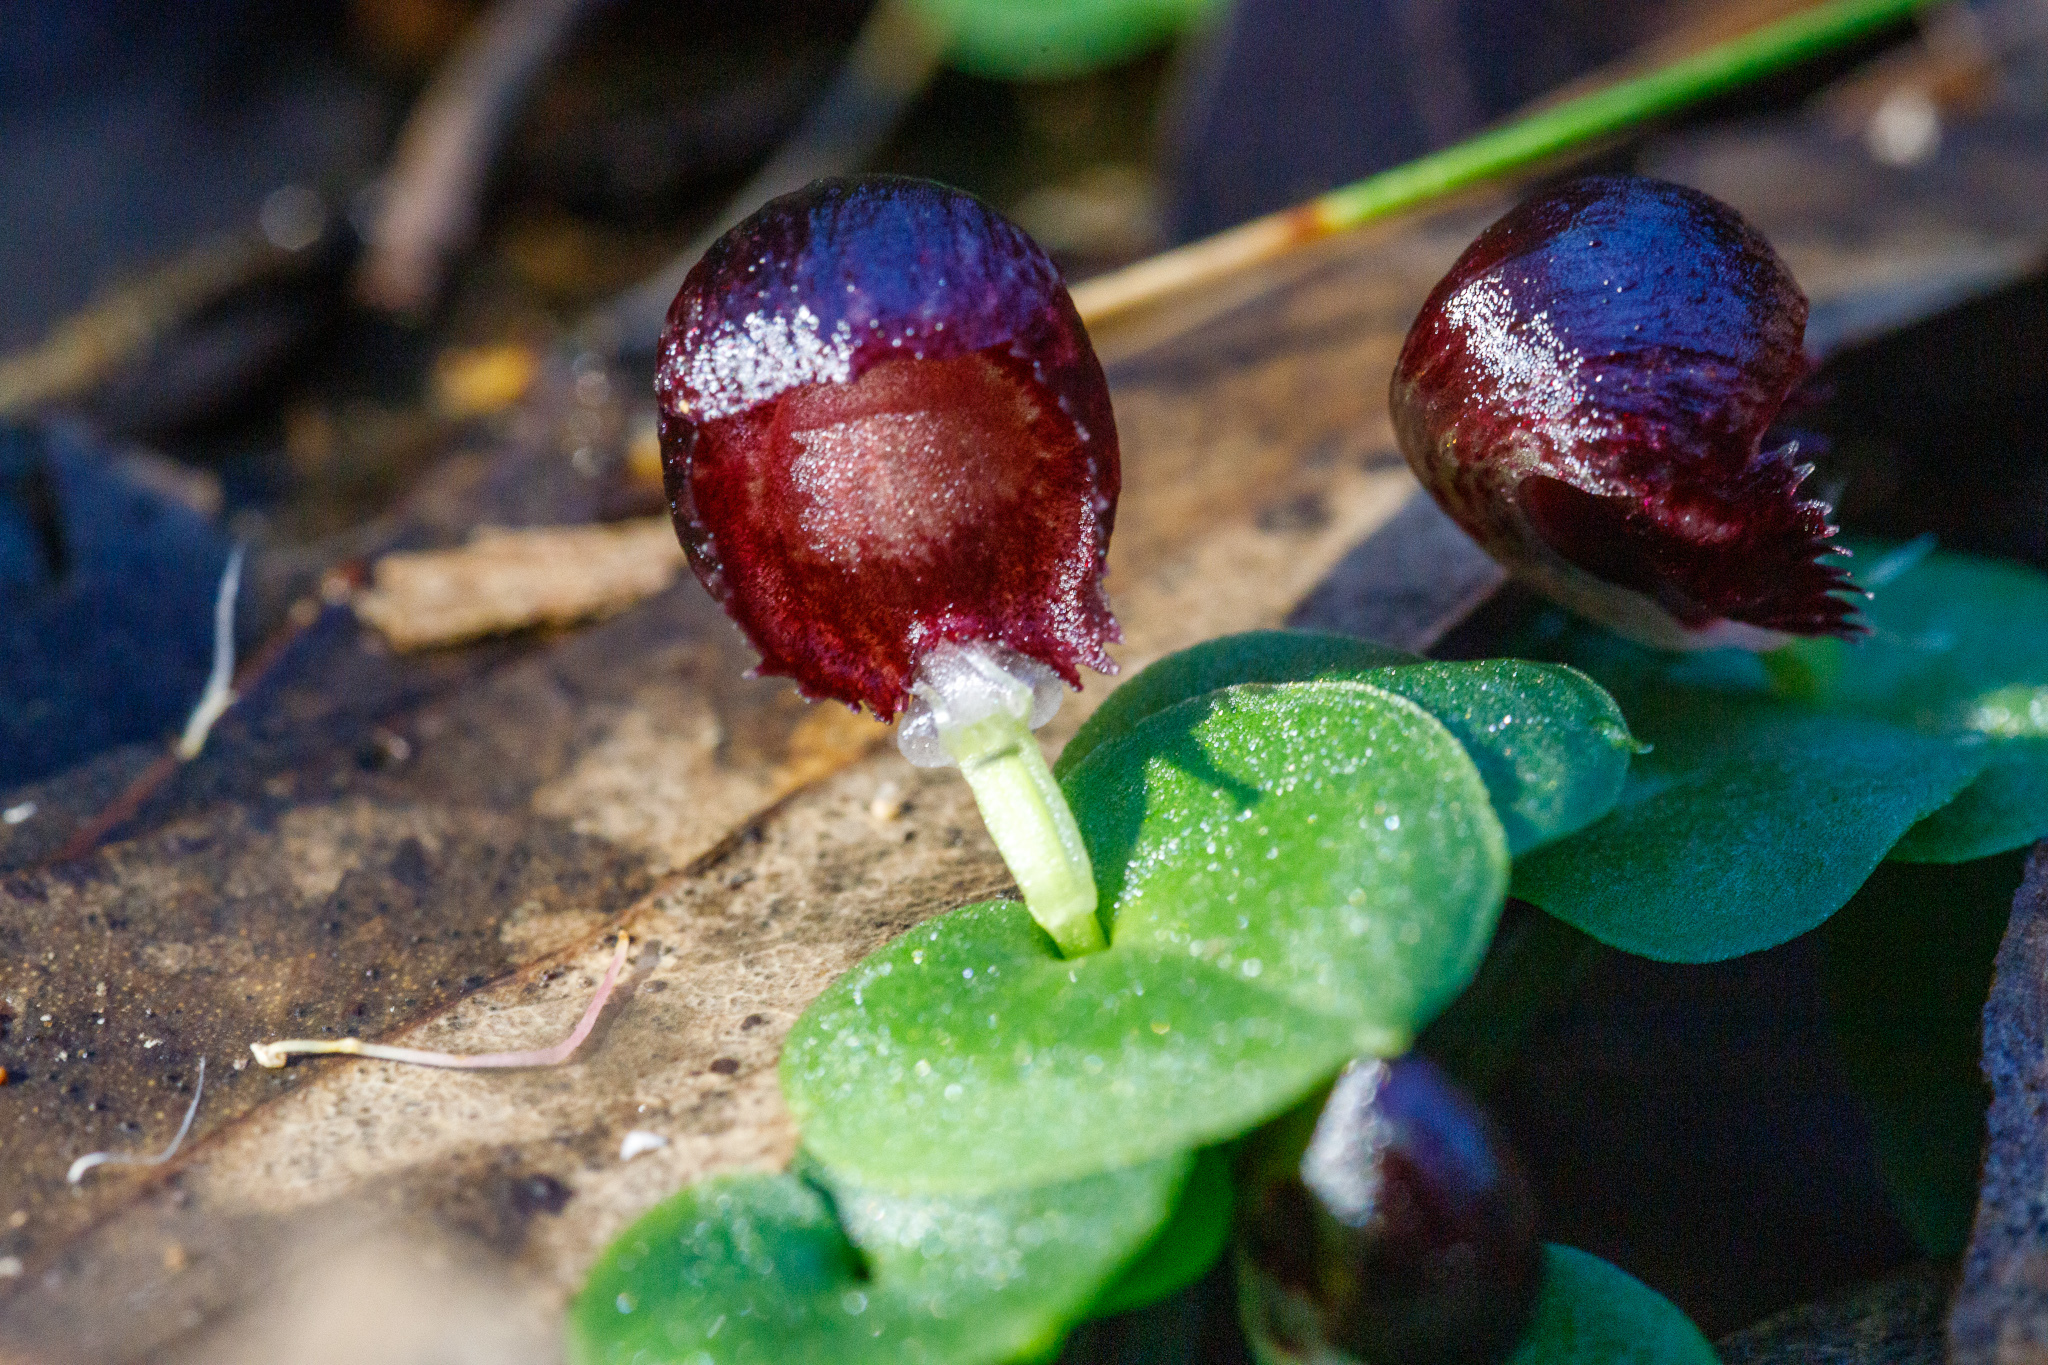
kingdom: Plantae
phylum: Tracheophyta
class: Liliopsida
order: Asparagales
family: Orchidaceae
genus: Corybas
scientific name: Corybas recurvus
